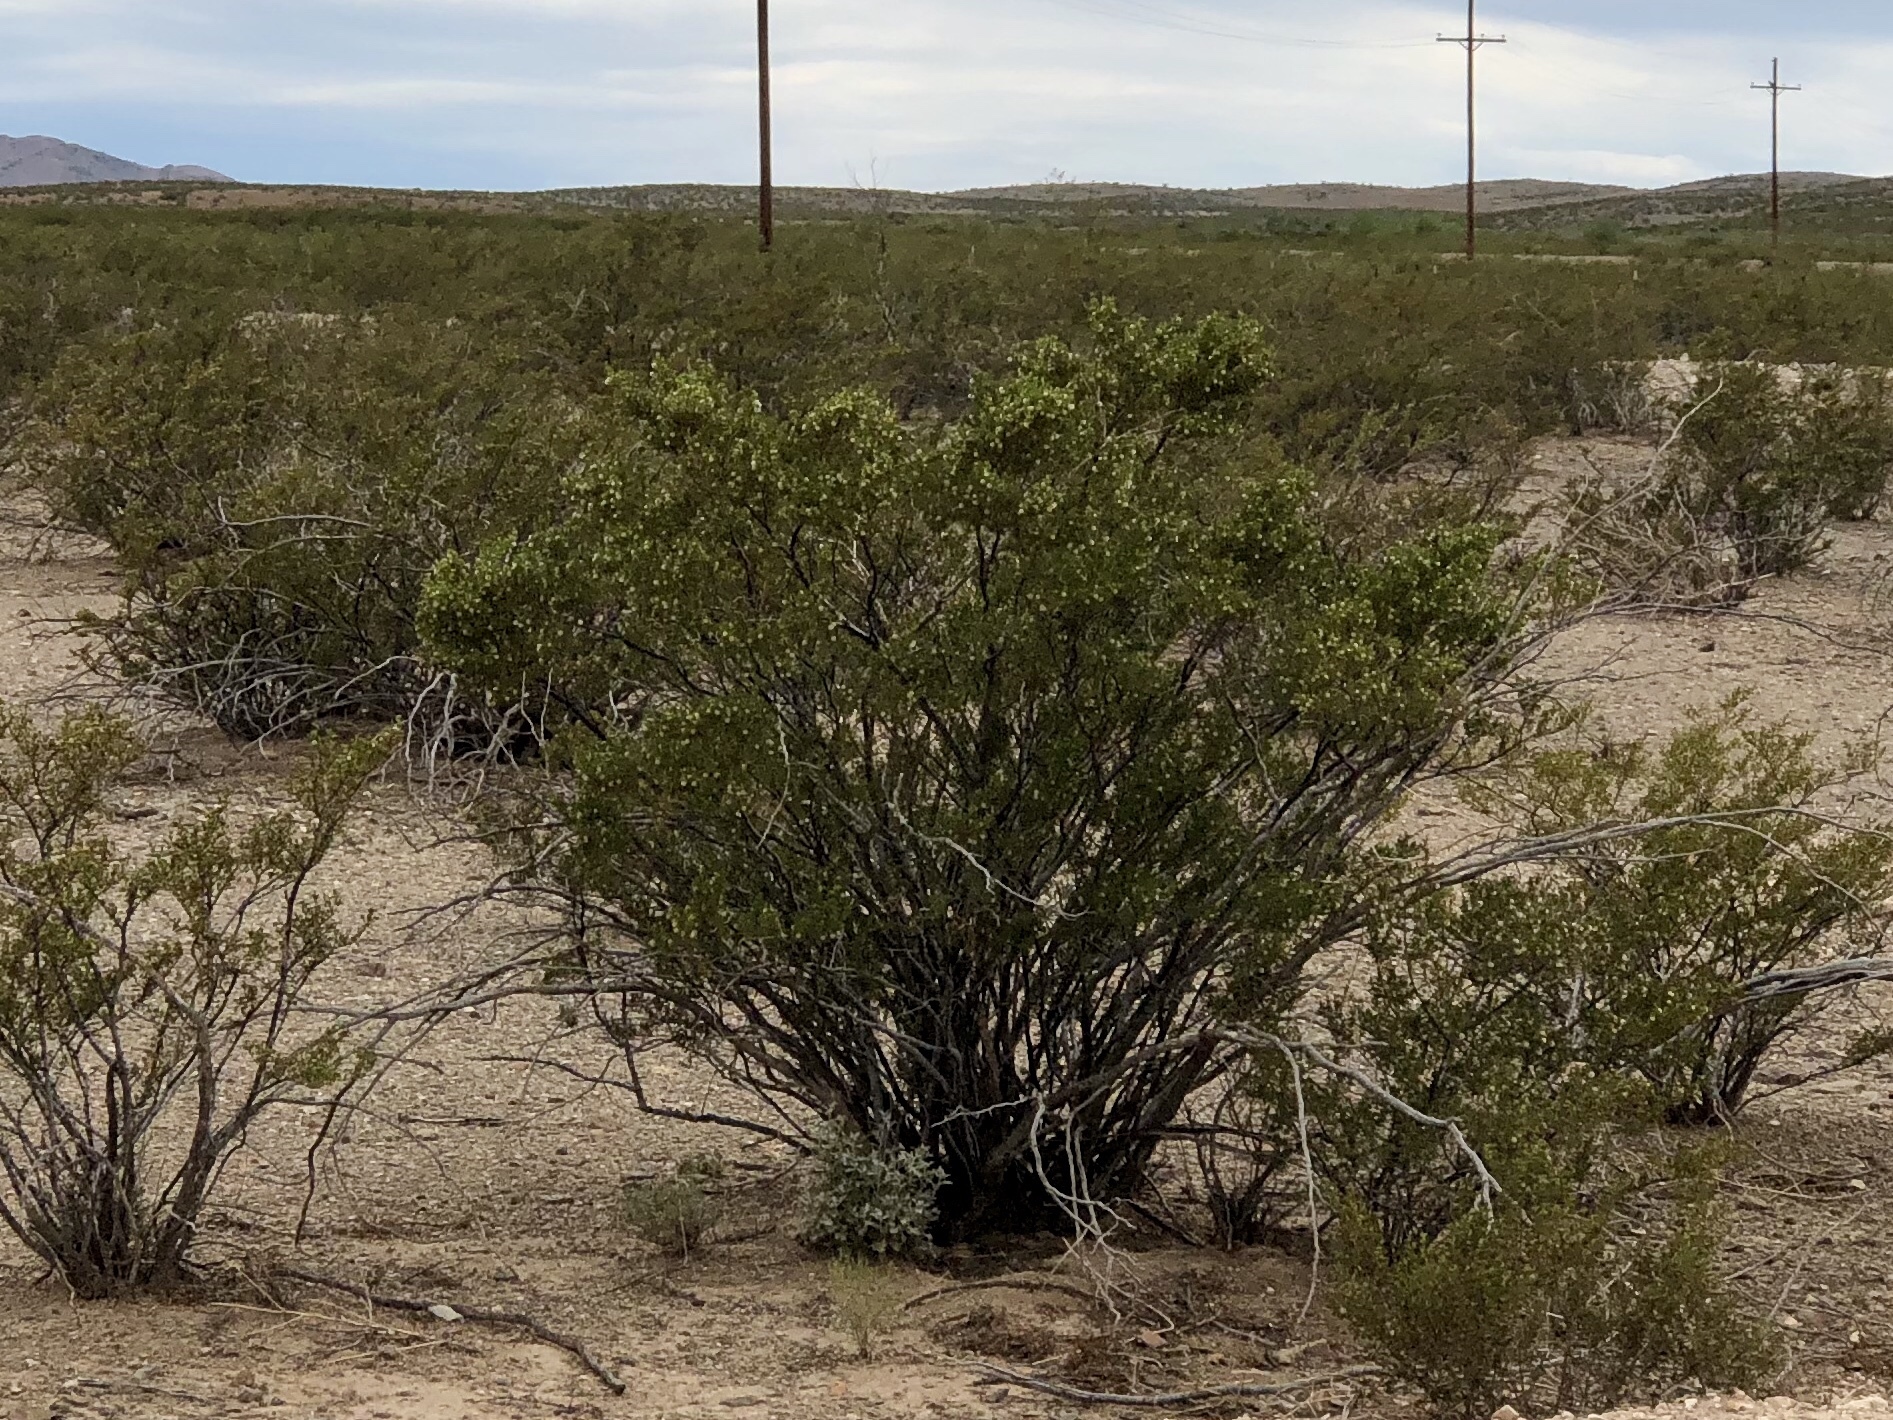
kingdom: Plantae
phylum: Tracheophyta
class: Magnoliopsida
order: Zygophyllales
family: Zygophyllaceae
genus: Larrea
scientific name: Larrea tridentata
